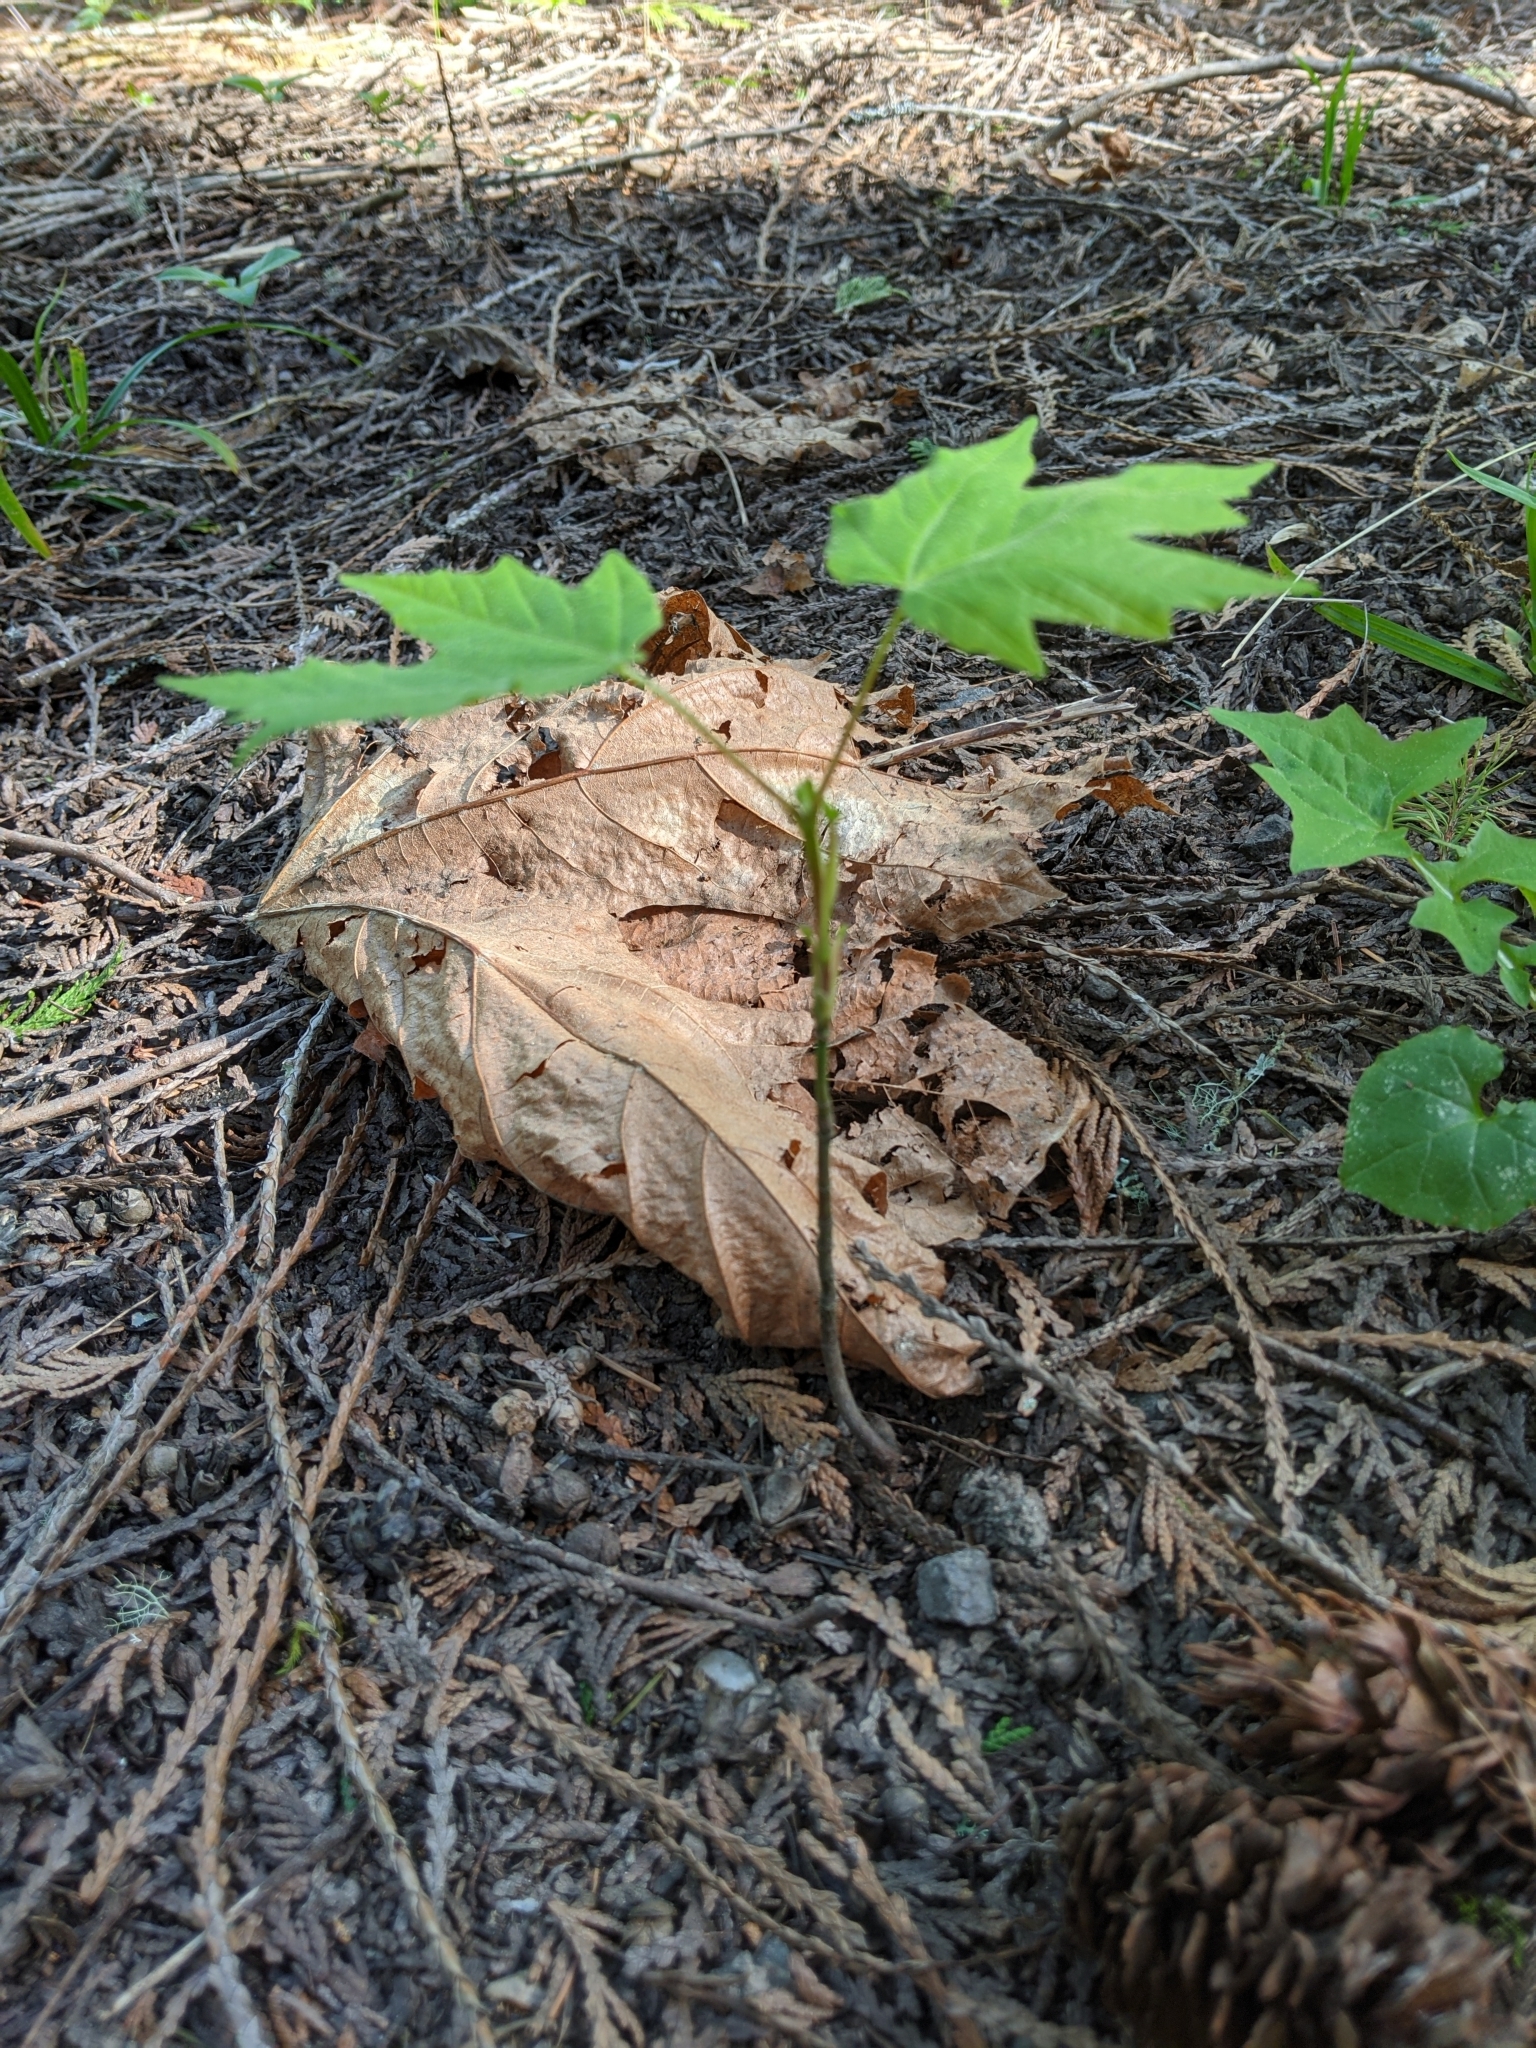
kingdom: Plantae
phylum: Tracheophyta
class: Magnoliopsida
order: Sapindales
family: Sapindaceae
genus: Acer
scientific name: Acer macrophyllum
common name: Oregon maple
